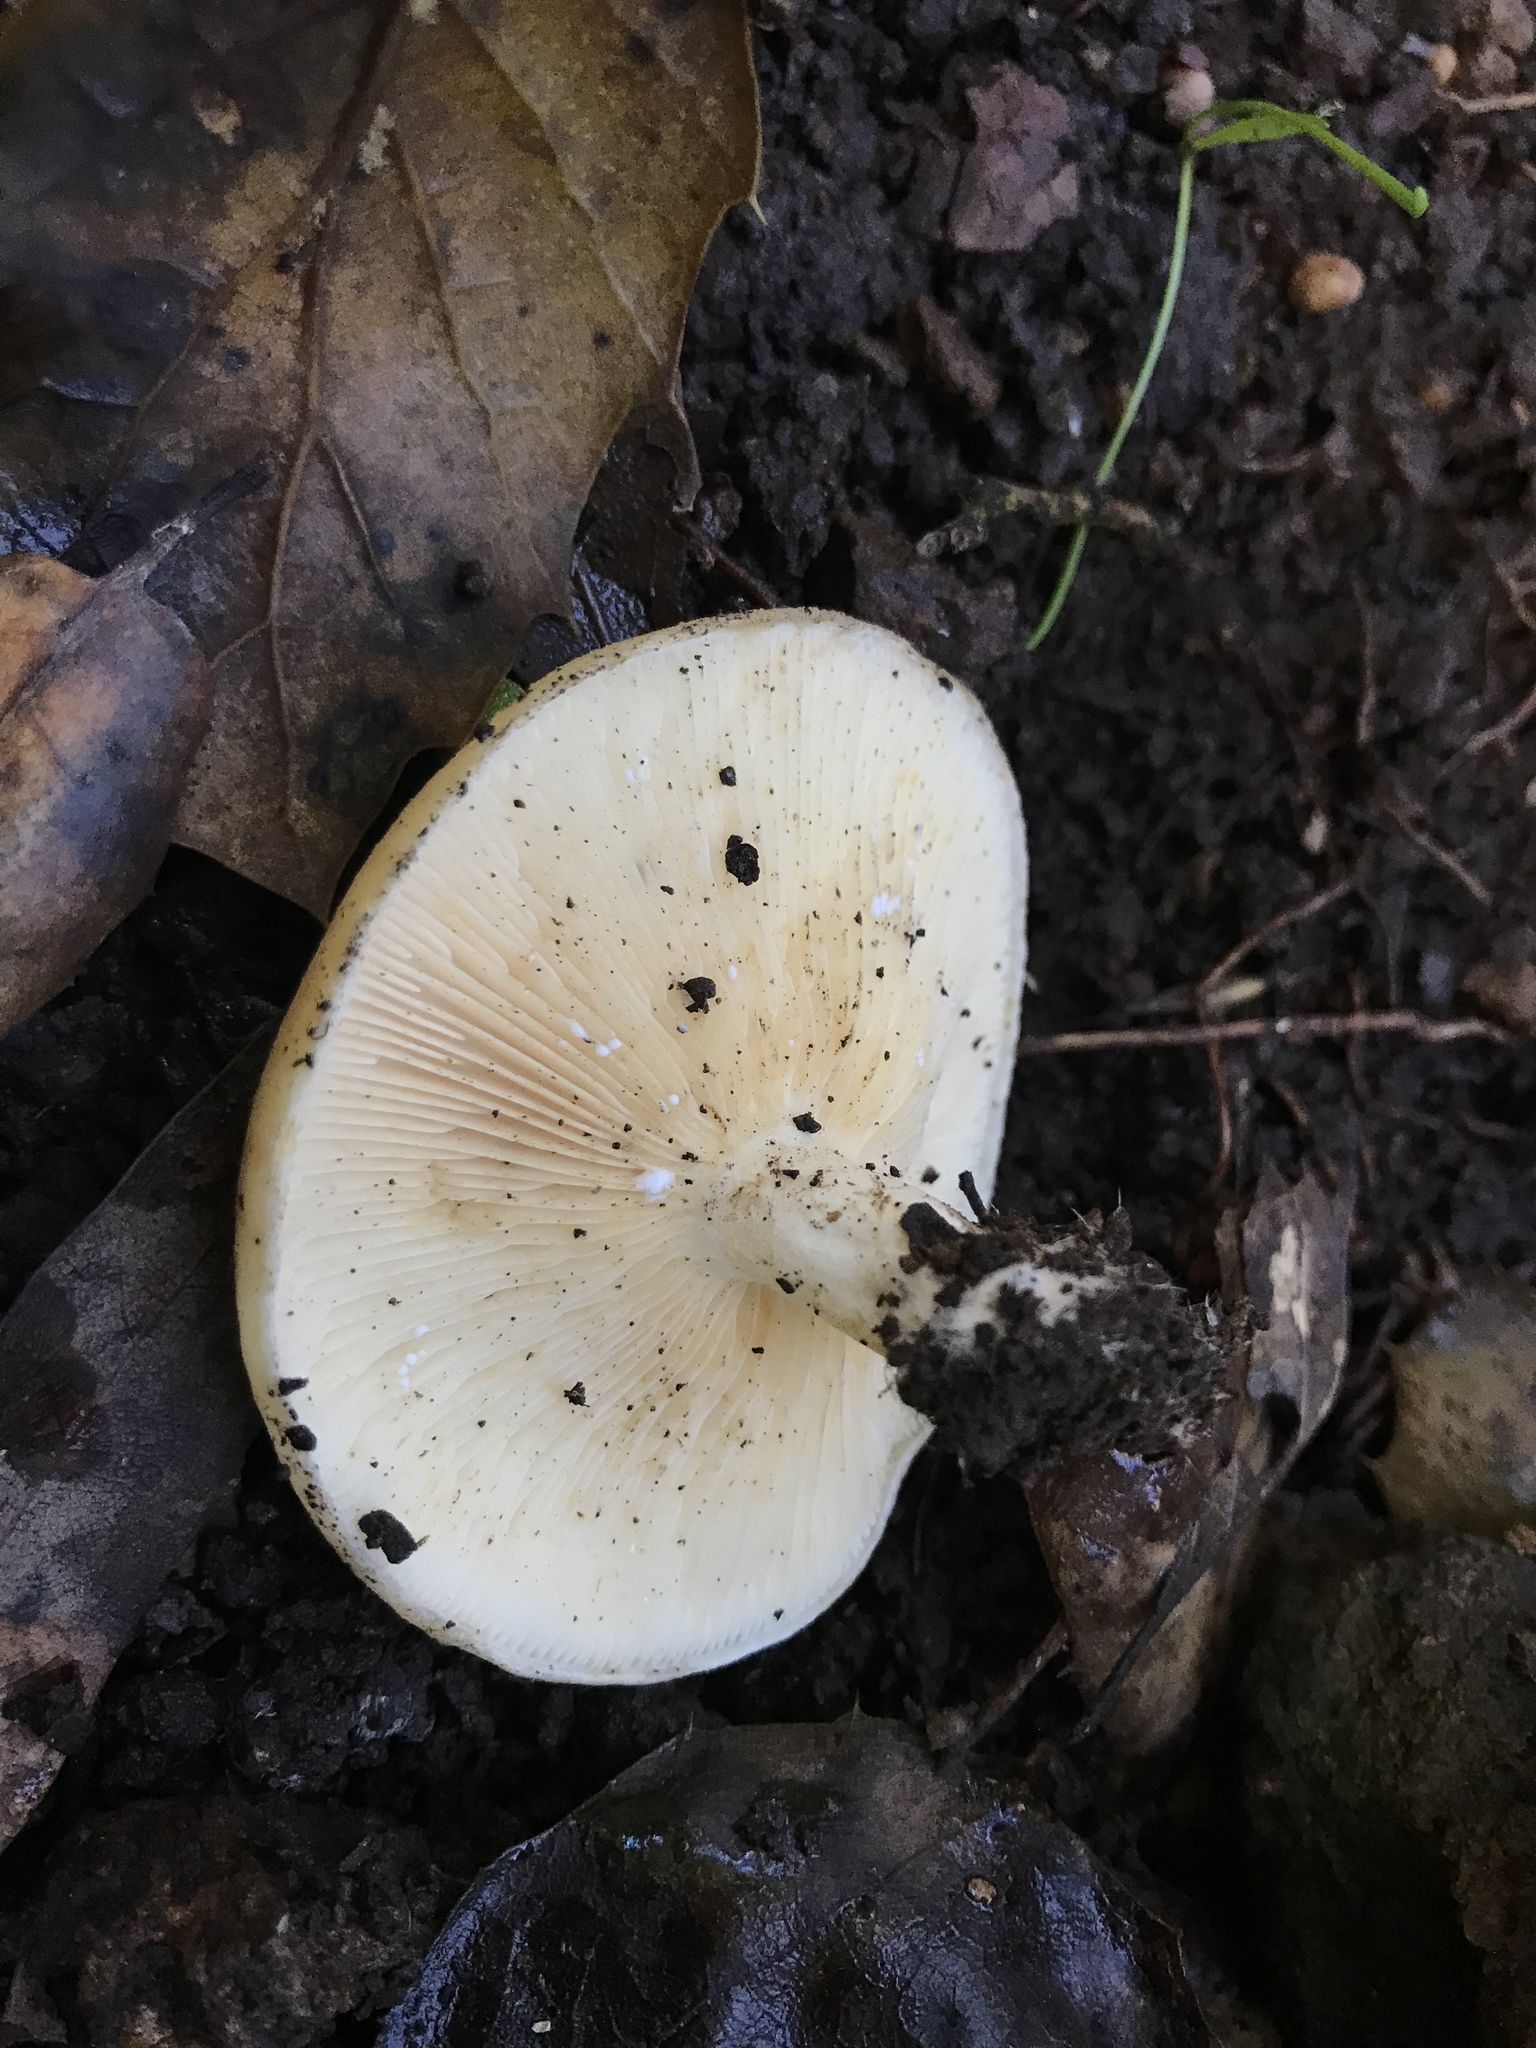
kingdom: Fungi
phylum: Basidiomycota
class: Agaricomycetes
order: Russulales
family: Russulaceae
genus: Lactarius
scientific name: Lactarius alnicola
